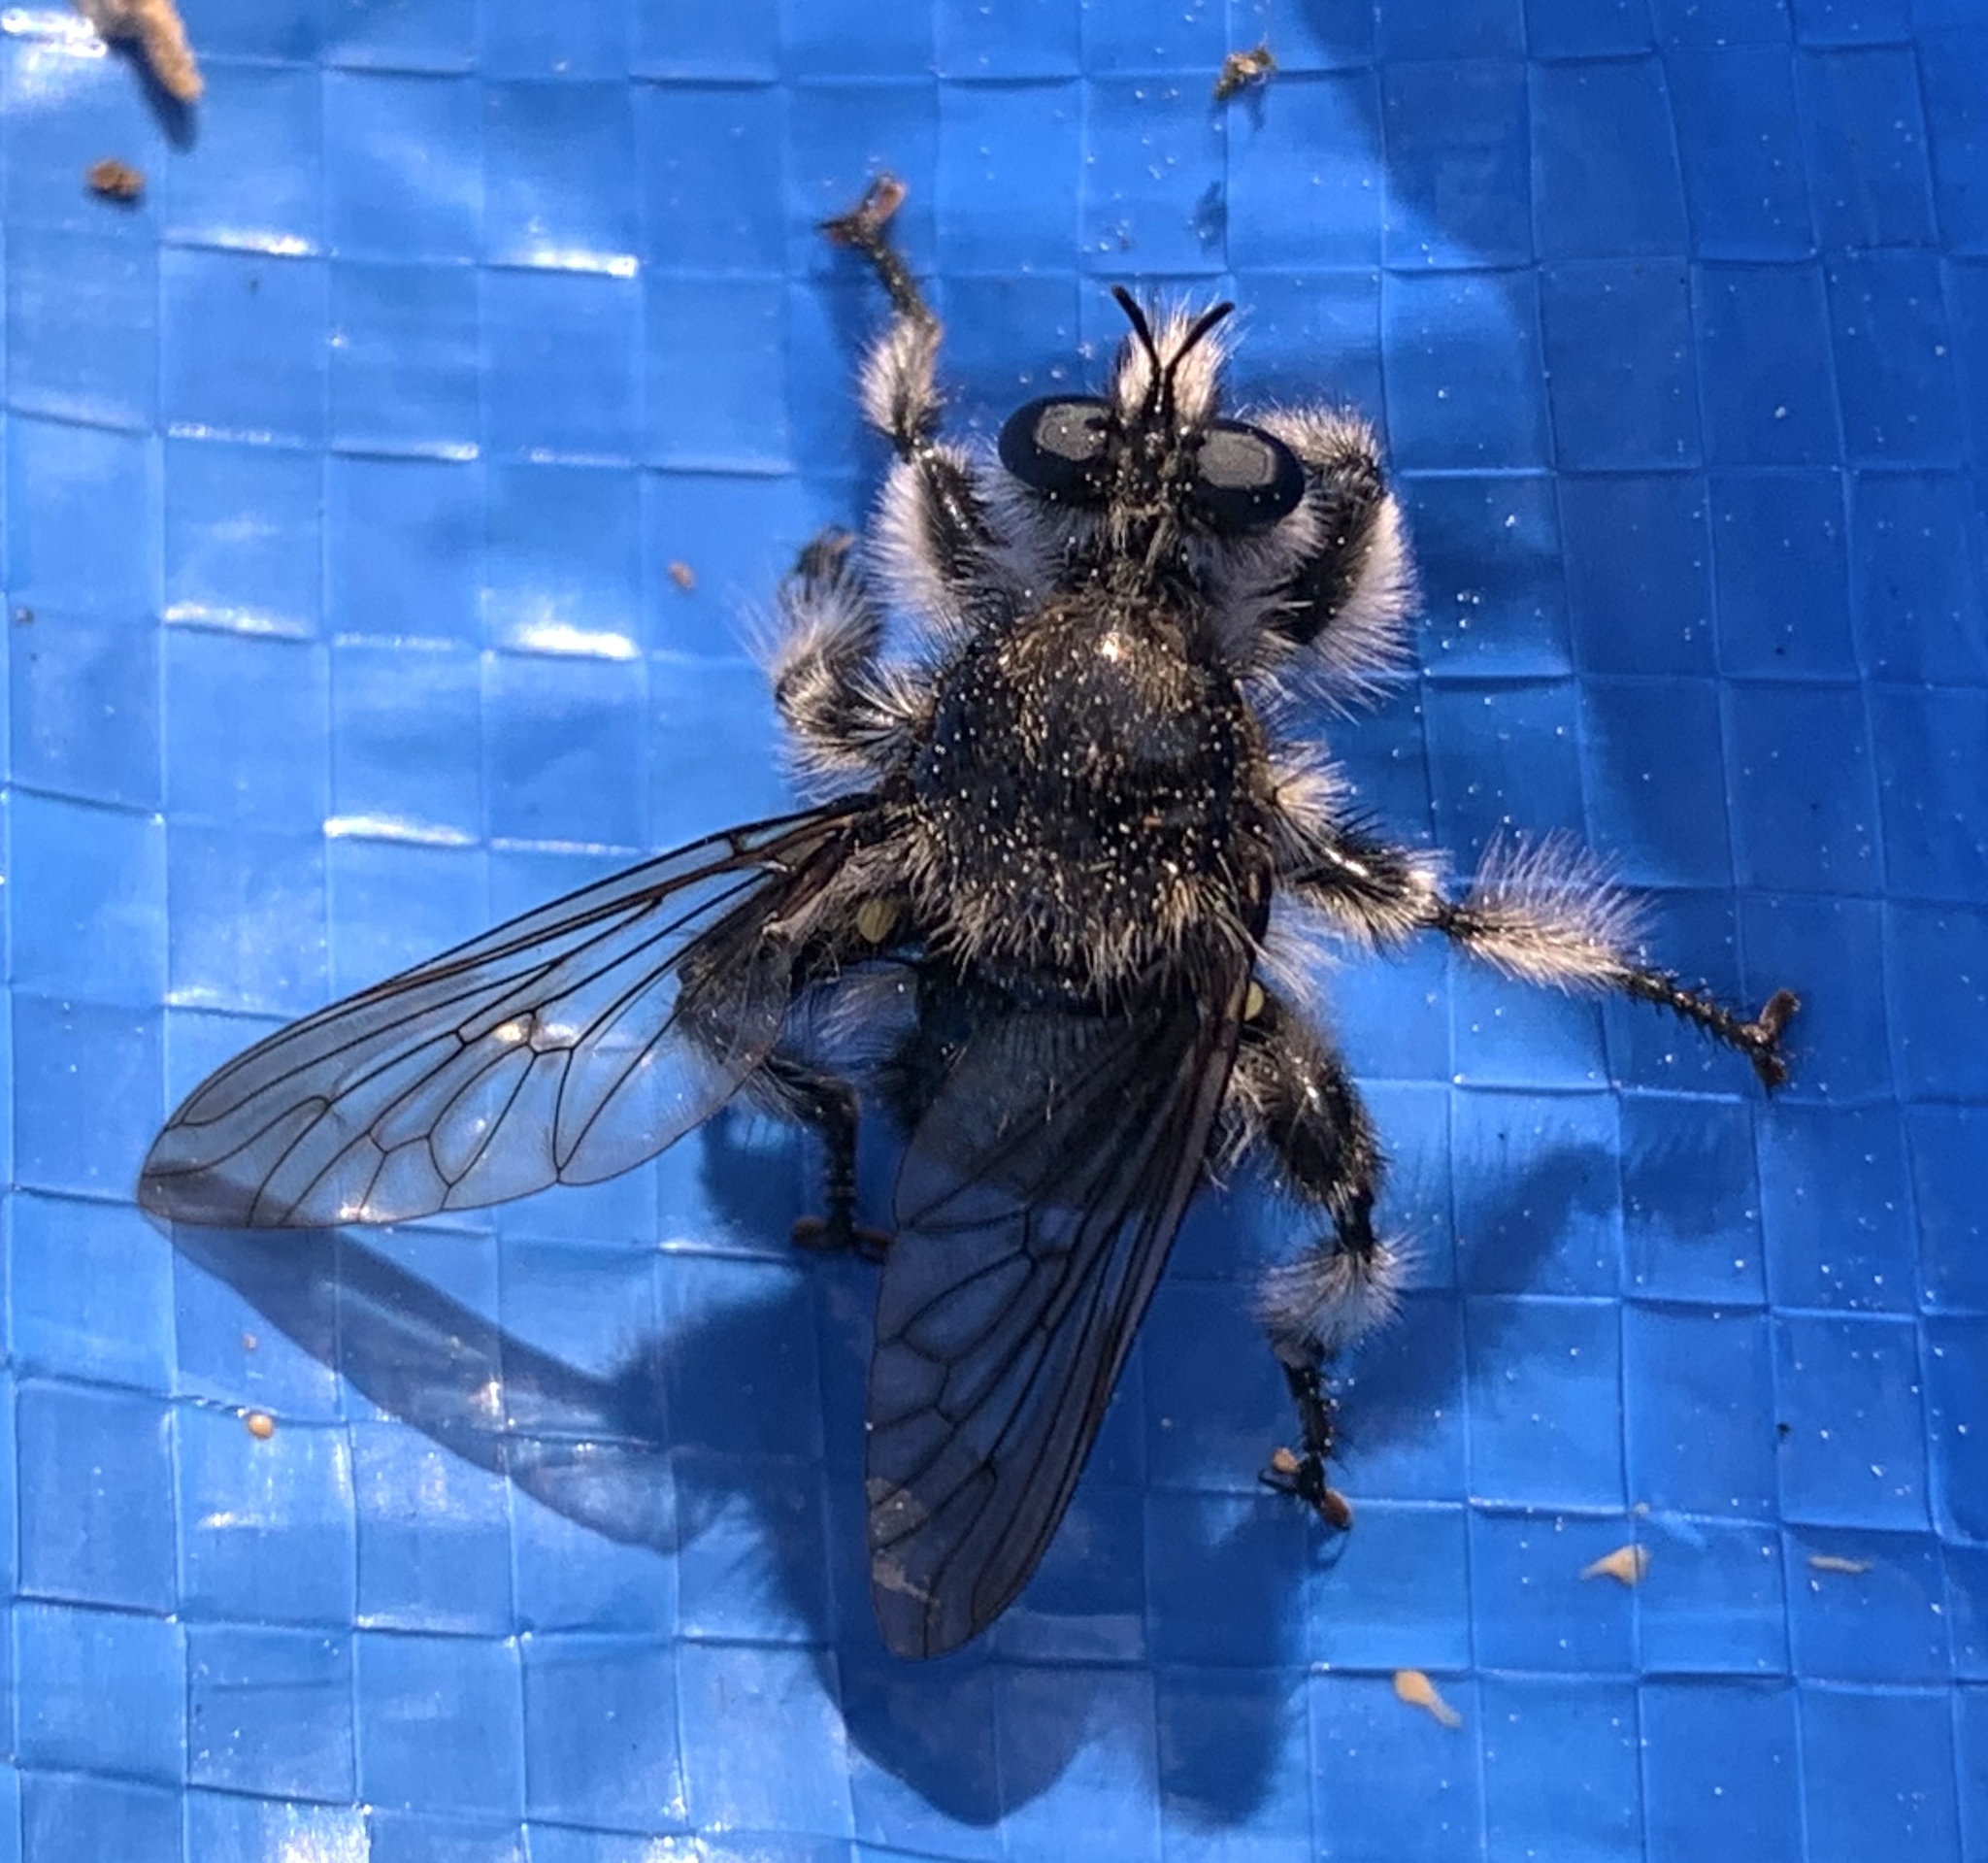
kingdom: Animalia
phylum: Arthropoda
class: Insecta
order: Diptera
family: Asilidae
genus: Laphria
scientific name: Laphria cinerea
